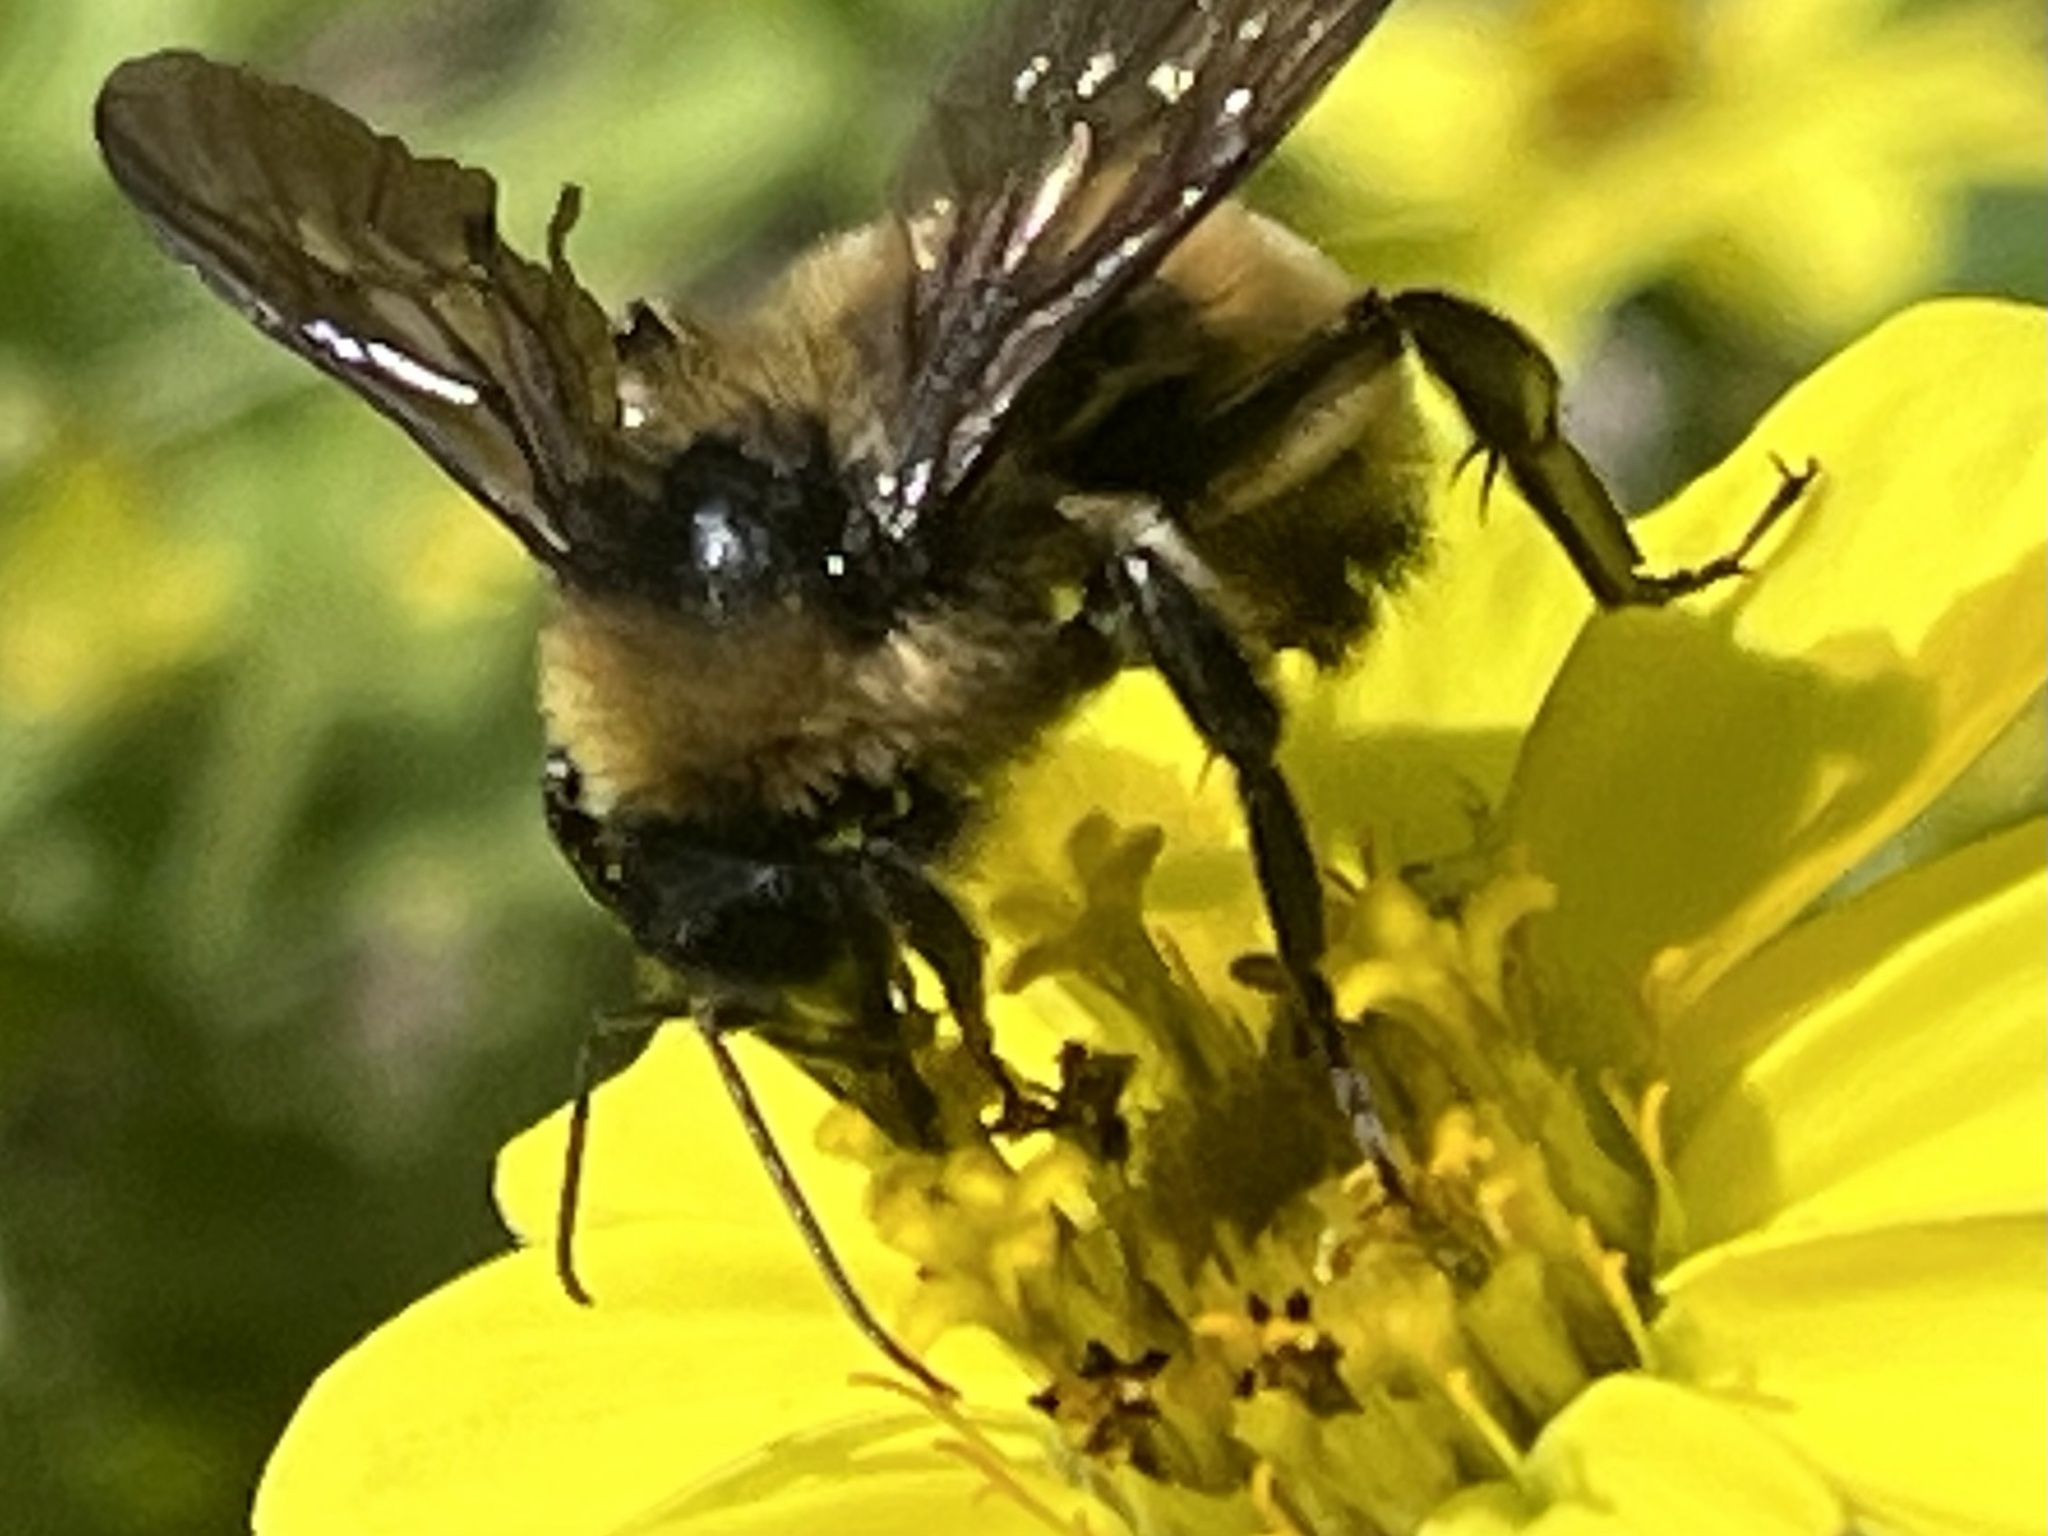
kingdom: Animalia
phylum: Arthropoda
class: Insecta
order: Hymenoptera
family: Apidae
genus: Bombus
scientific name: Bombus pensylvanicus
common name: Bumble bee
